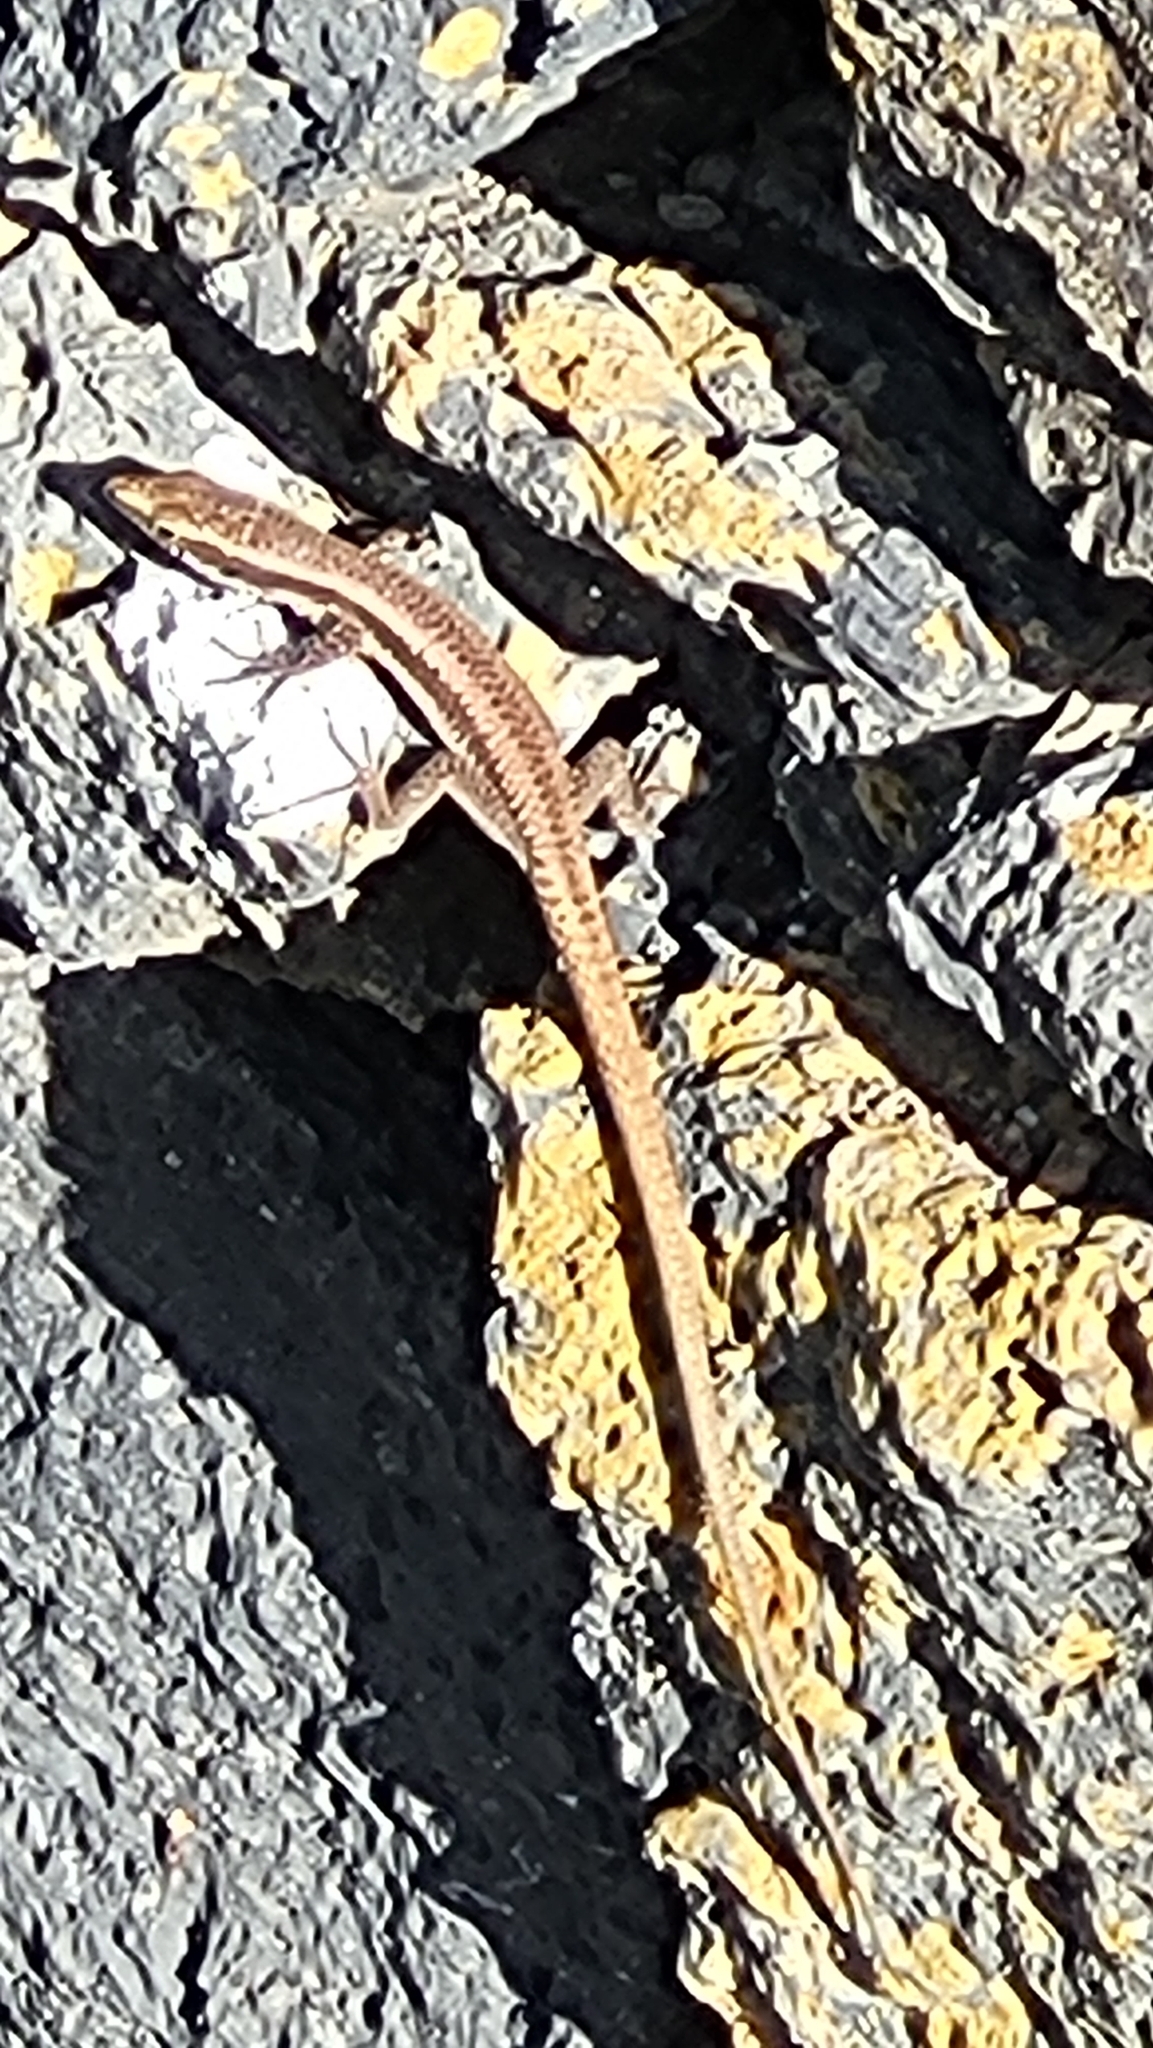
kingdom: Animalia
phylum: Chordata
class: Squamata
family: Lacertidae
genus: Teira
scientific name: Teira dugesii
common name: Madeira lizard
